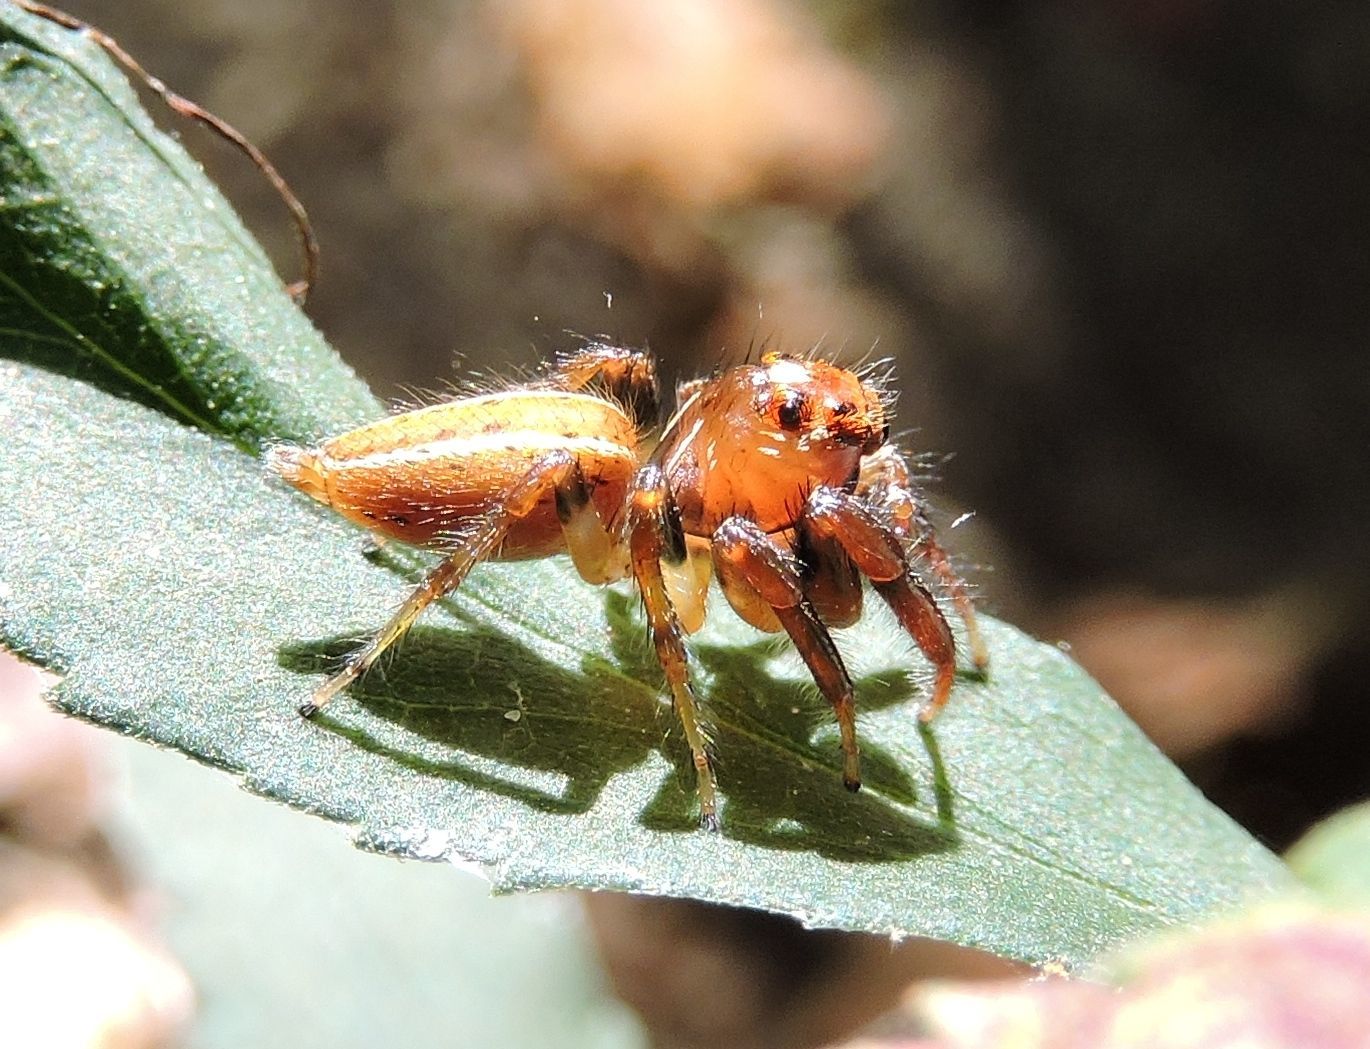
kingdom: Animalia
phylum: Arthropoda
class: Arachnida
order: Araneae
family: Salticidae
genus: Colonus
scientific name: Colonus sylvanus
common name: Jumping spiders
